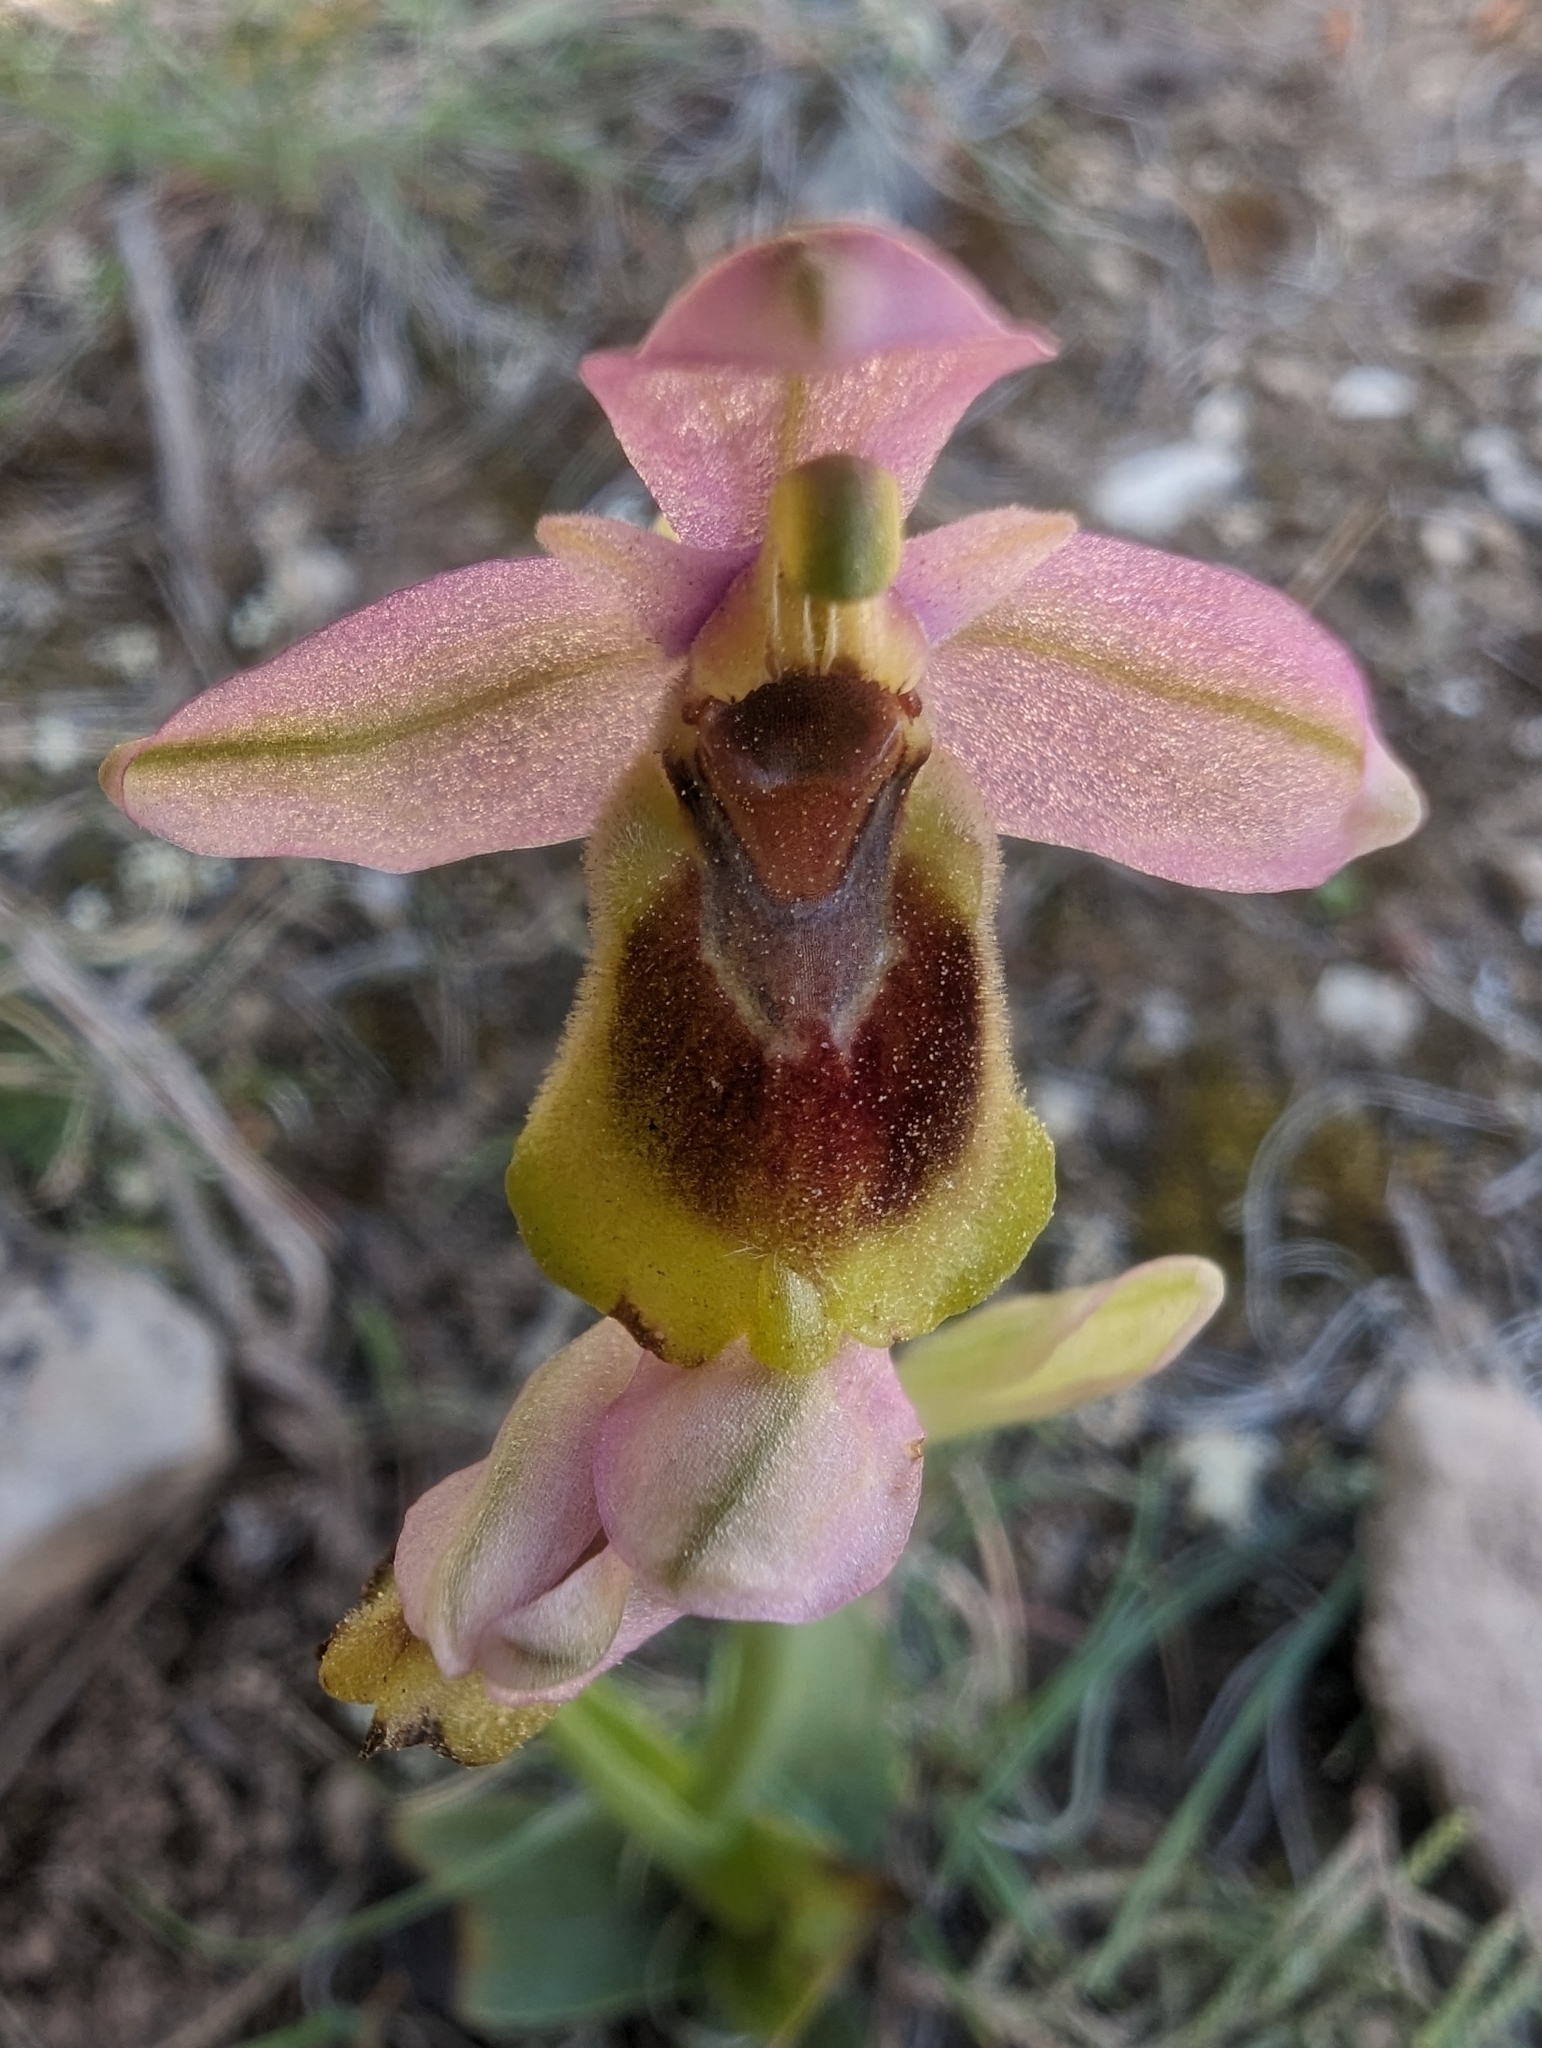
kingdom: Plantae
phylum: Tracheophyta
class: Liliopsida
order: Asparagales
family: Orchidaceae
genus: Ophrys
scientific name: Ophrys tenthredinifera
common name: Sawfly orchid
